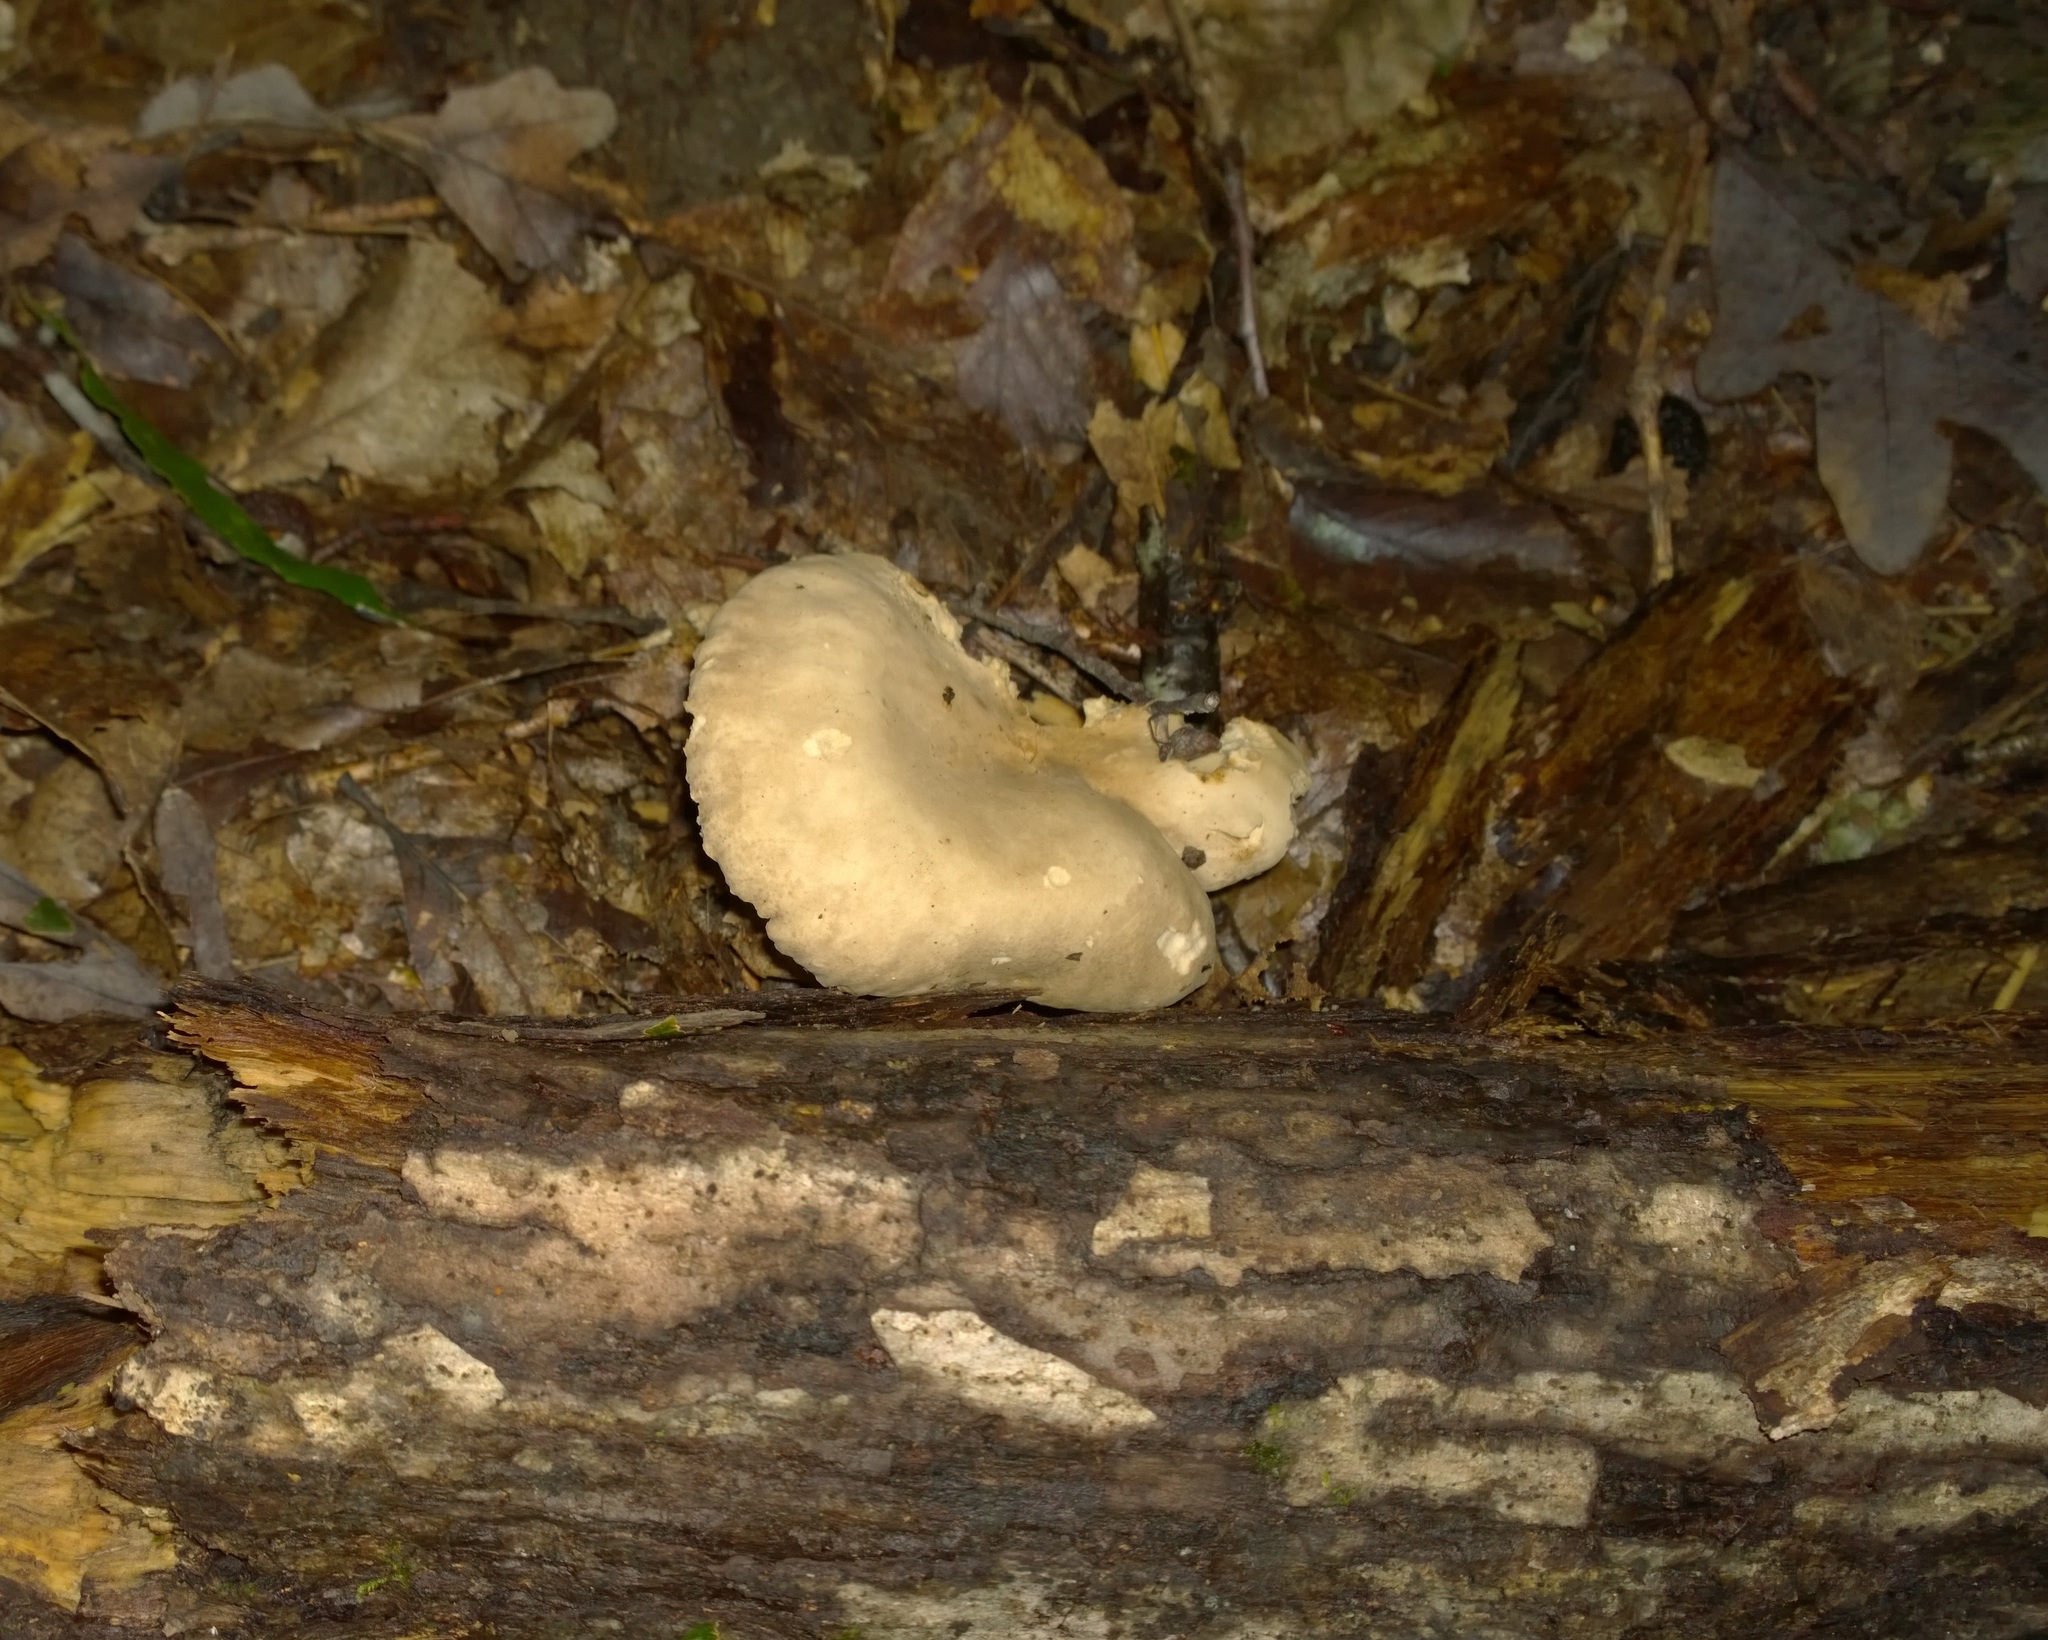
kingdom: Fungi
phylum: Basidiomycota
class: Agaricomycetes
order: Russulales
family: Russulaceae
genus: Lactarius
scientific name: Lactarius subplinthogalus
